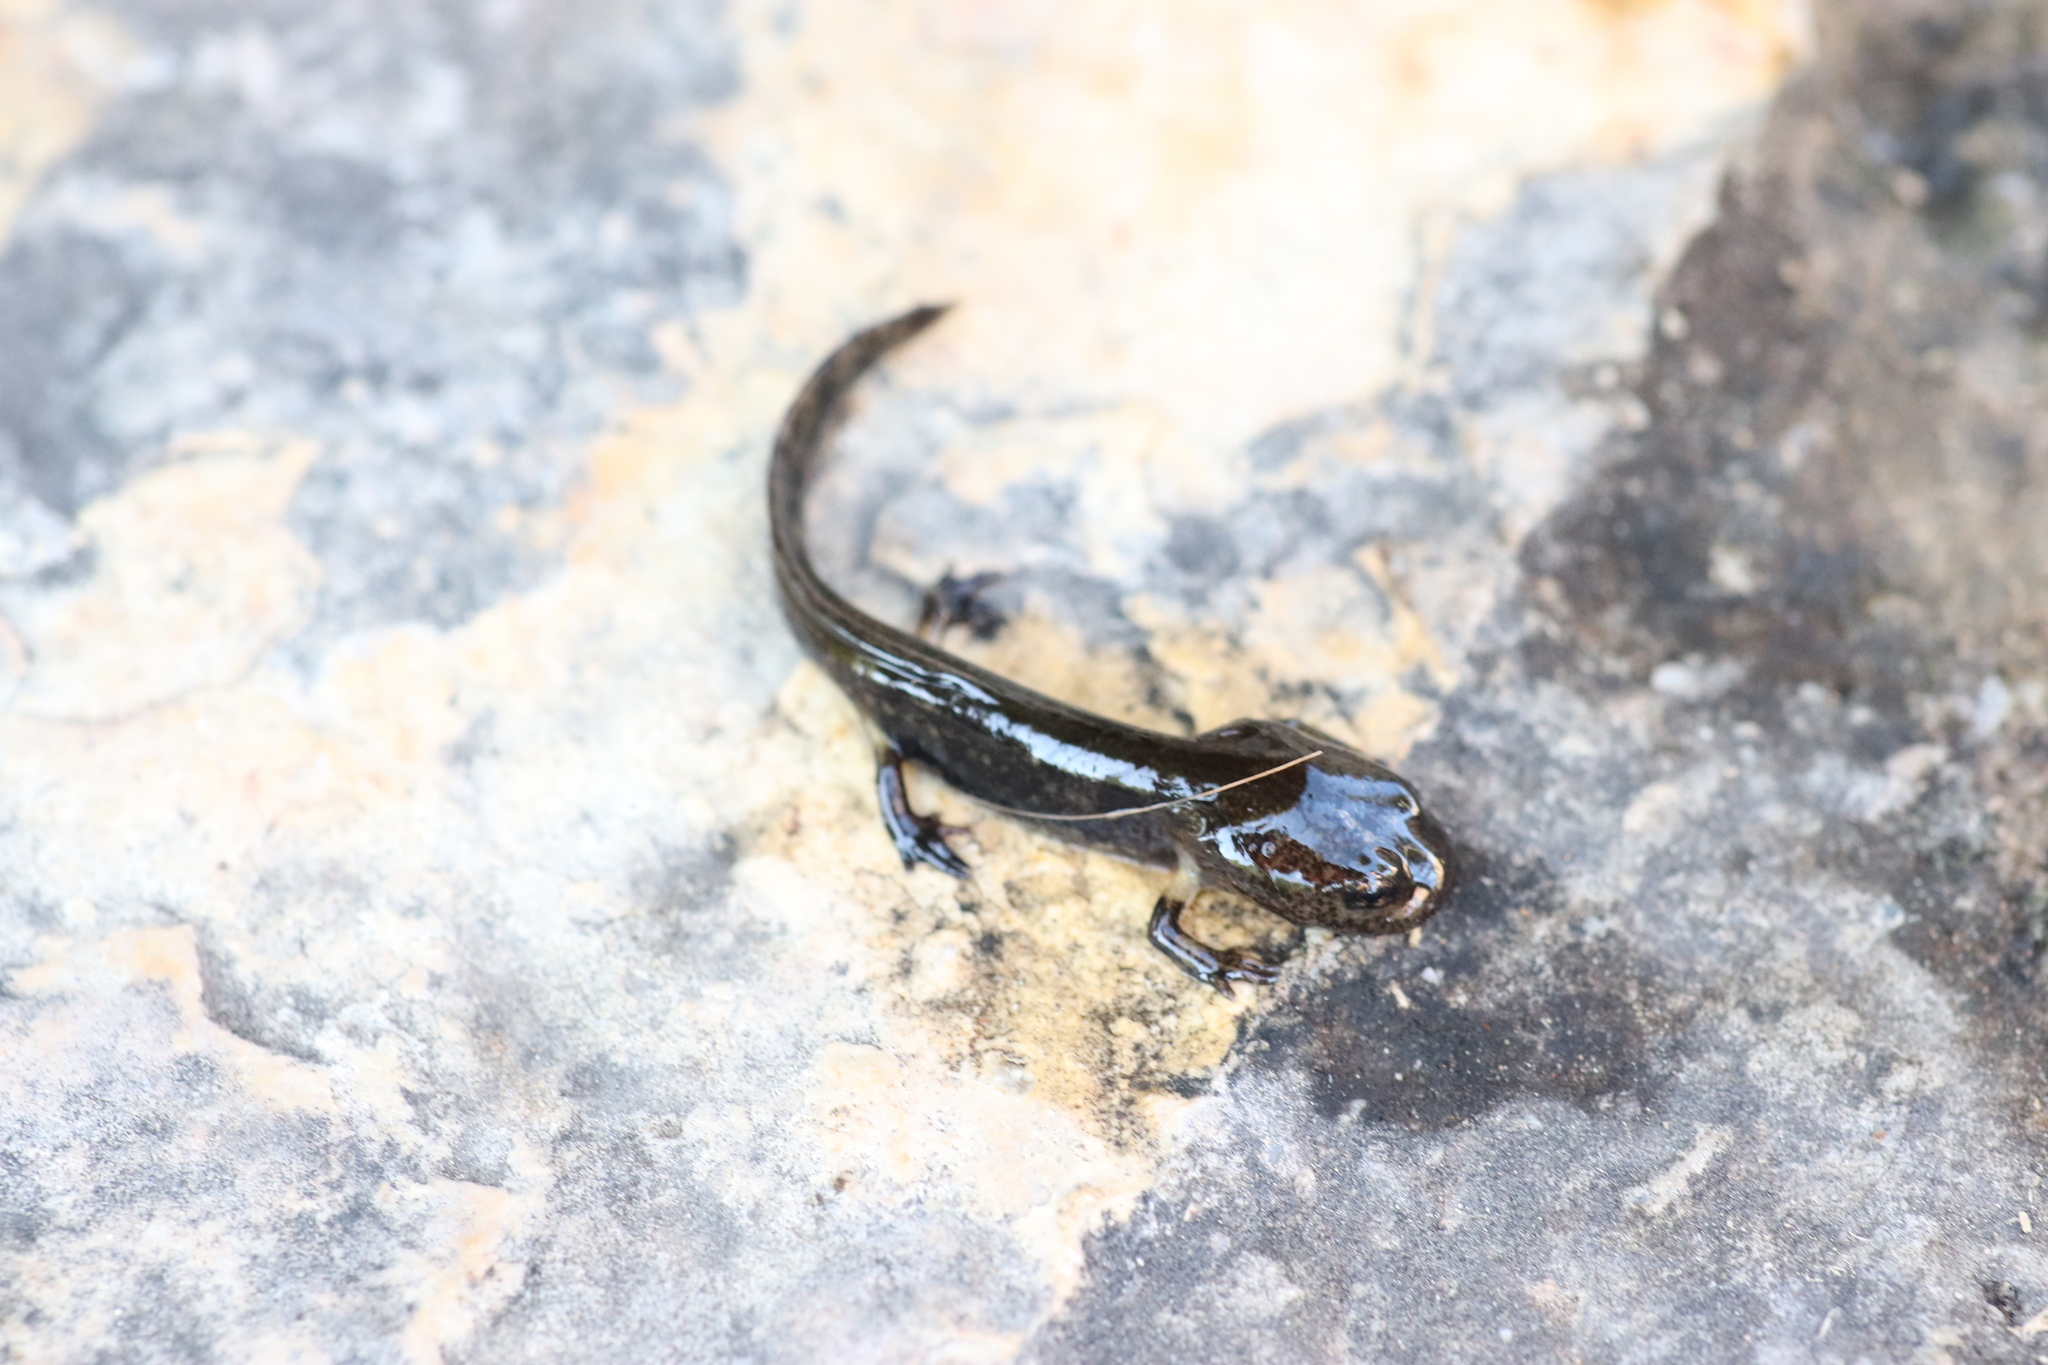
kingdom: Animalia
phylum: Chordata
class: Amphibia
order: Caudata
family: Salamandridae
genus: Salamandra
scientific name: Salamandra salamandra
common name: Fire salamander
